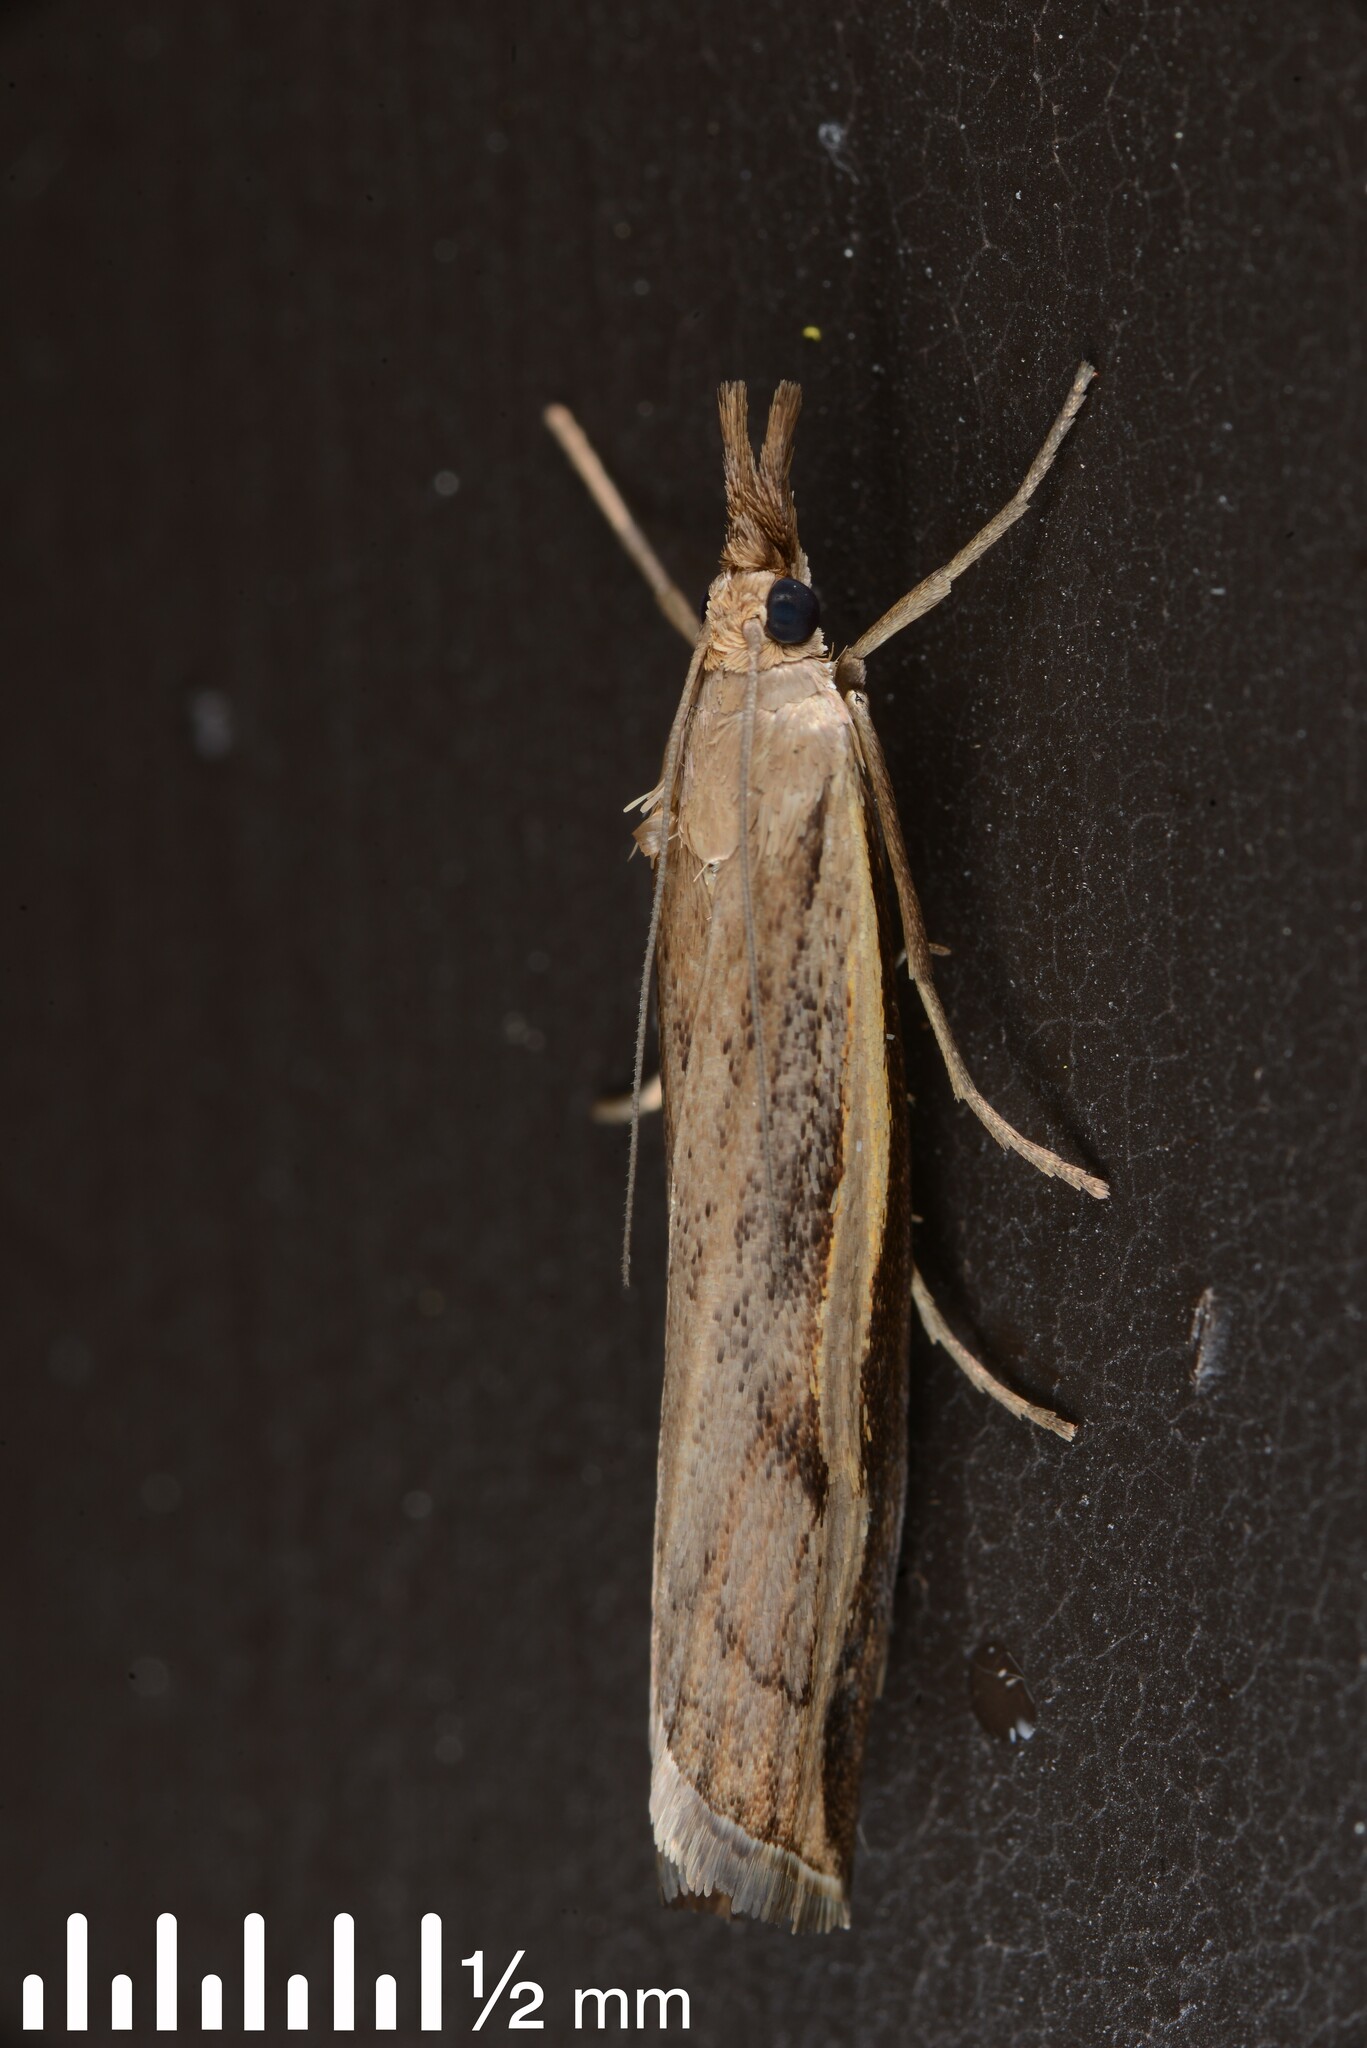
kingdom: Animalia
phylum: Arthropoda
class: Insecta
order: Lepidoptera
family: Crambidae
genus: Orocrambus
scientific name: Orocrambus flexuosellus
